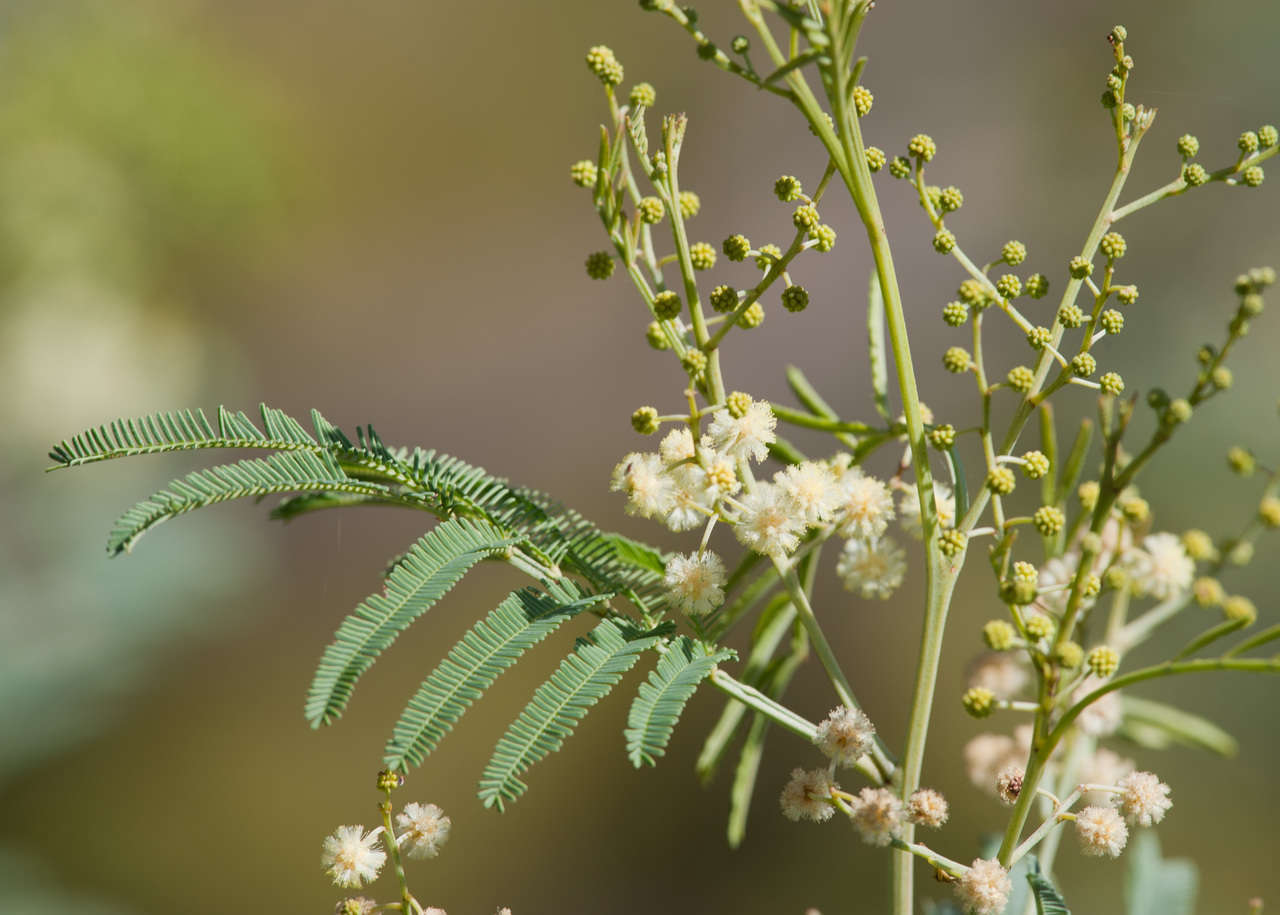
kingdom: Plantae
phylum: Tracheophyta
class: Magnoliopsida
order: Fabales
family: Fabaceae
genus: Acacia
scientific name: Acacia deanei
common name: Deane's wattle
